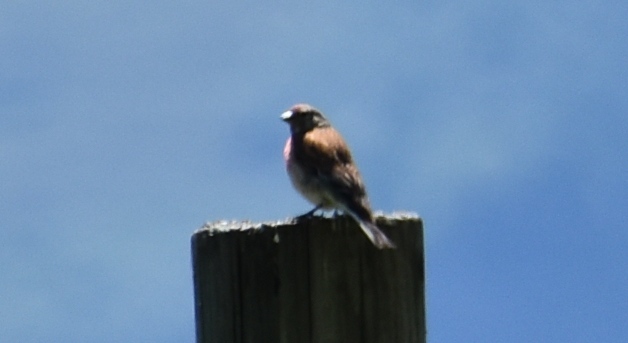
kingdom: Animalia
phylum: Chordata
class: Aves
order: Passeriformes
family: Fringillidae
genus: Linaria
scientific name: Linaria cannabina
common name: Common linnet
